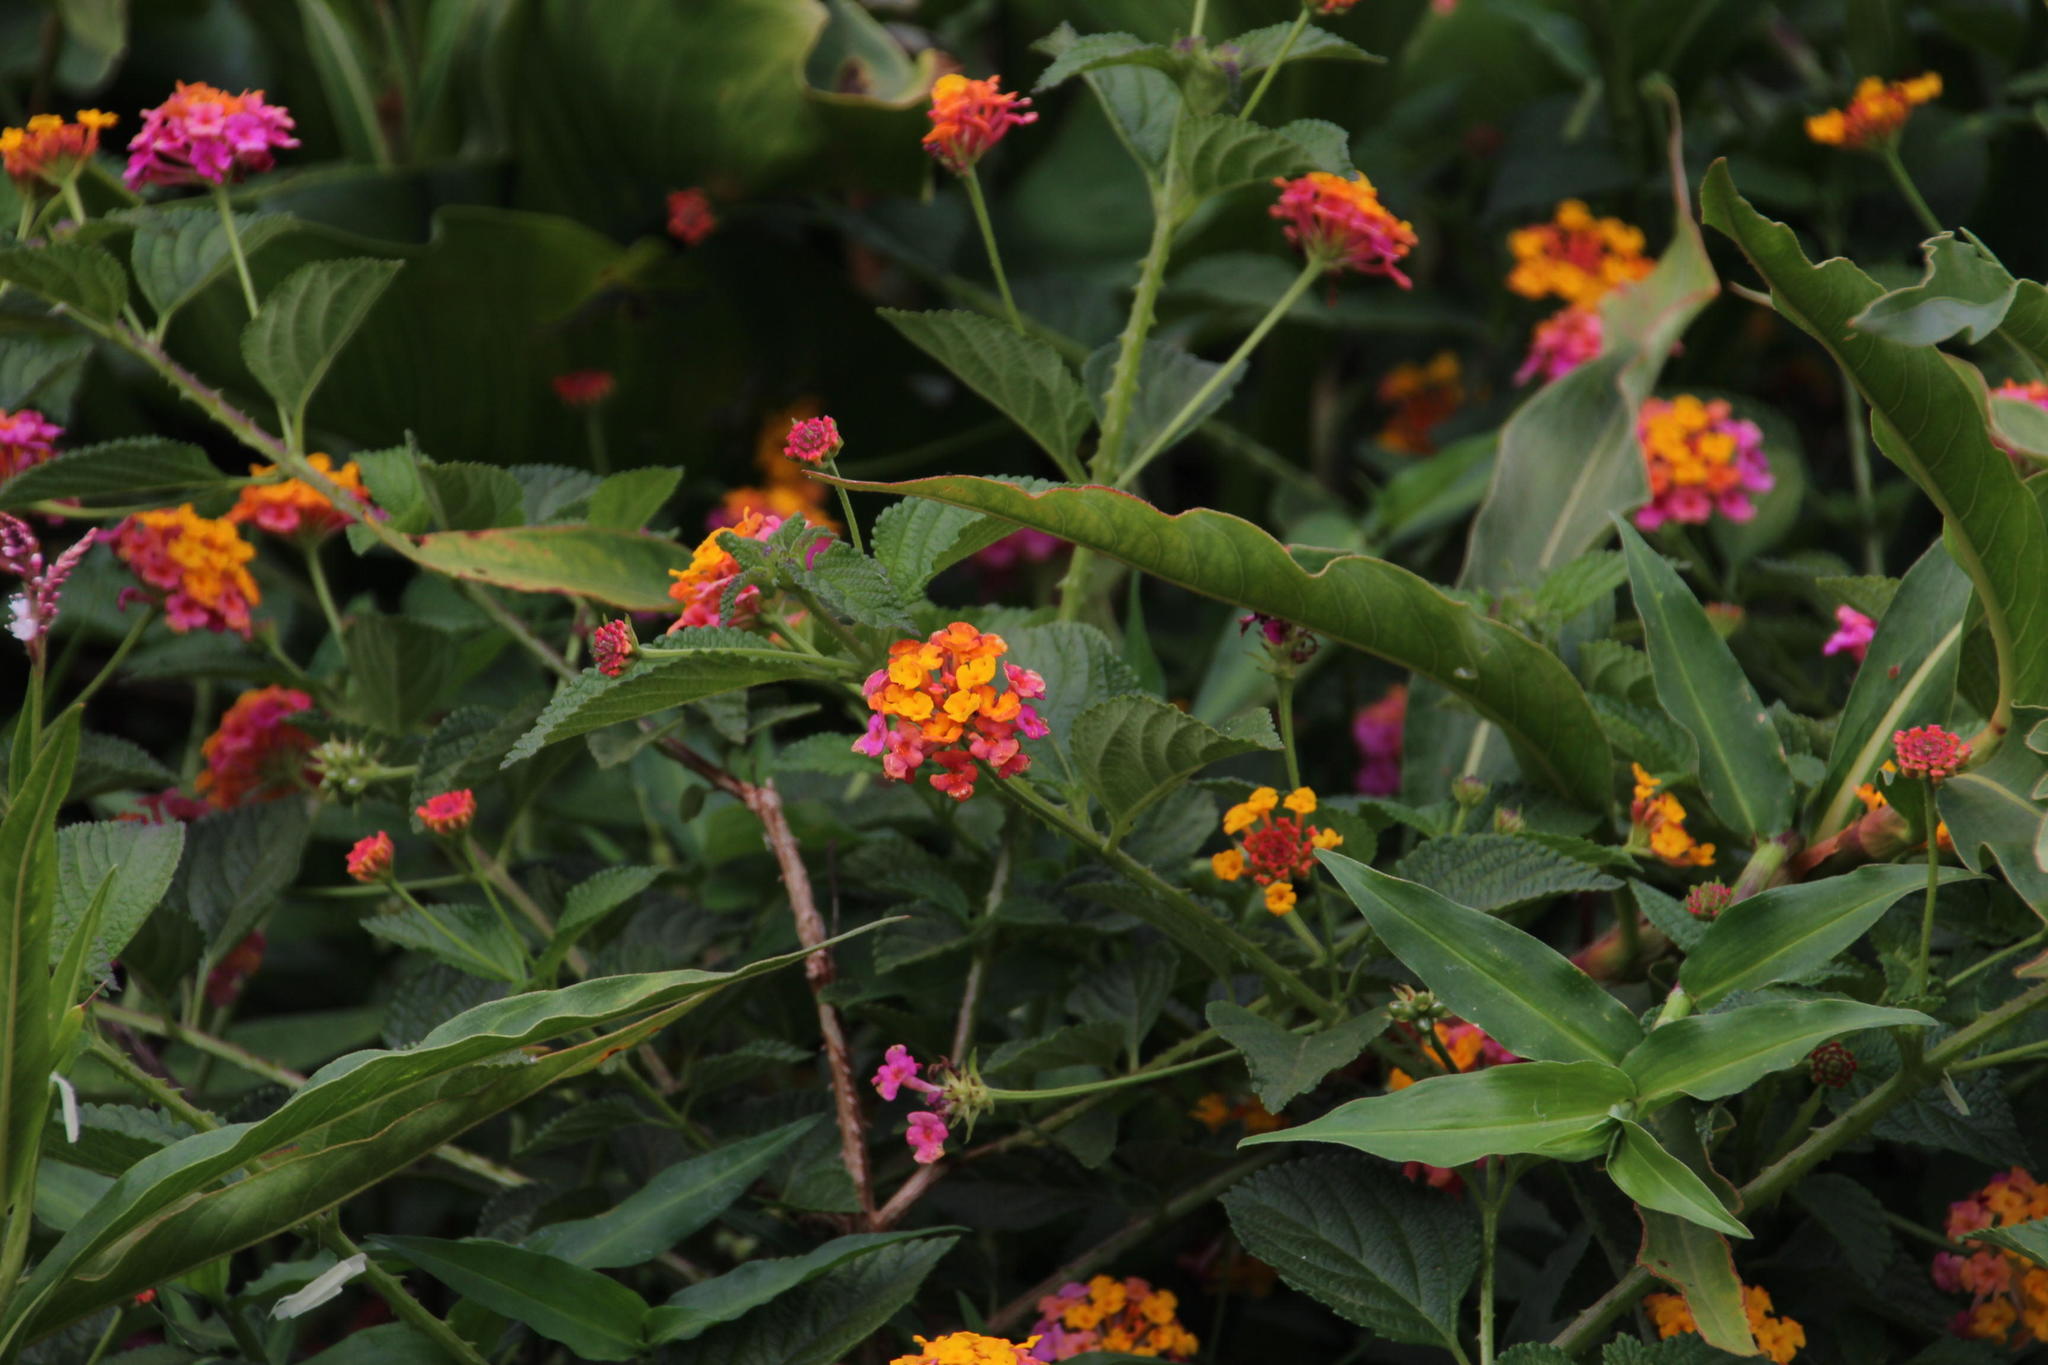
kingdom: Plantae
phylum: Tracheophyta
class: Magnoliopsida
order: Lamiales
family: Verbenaceae
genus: Lantana
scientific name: Lantana camara
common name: Lantana
